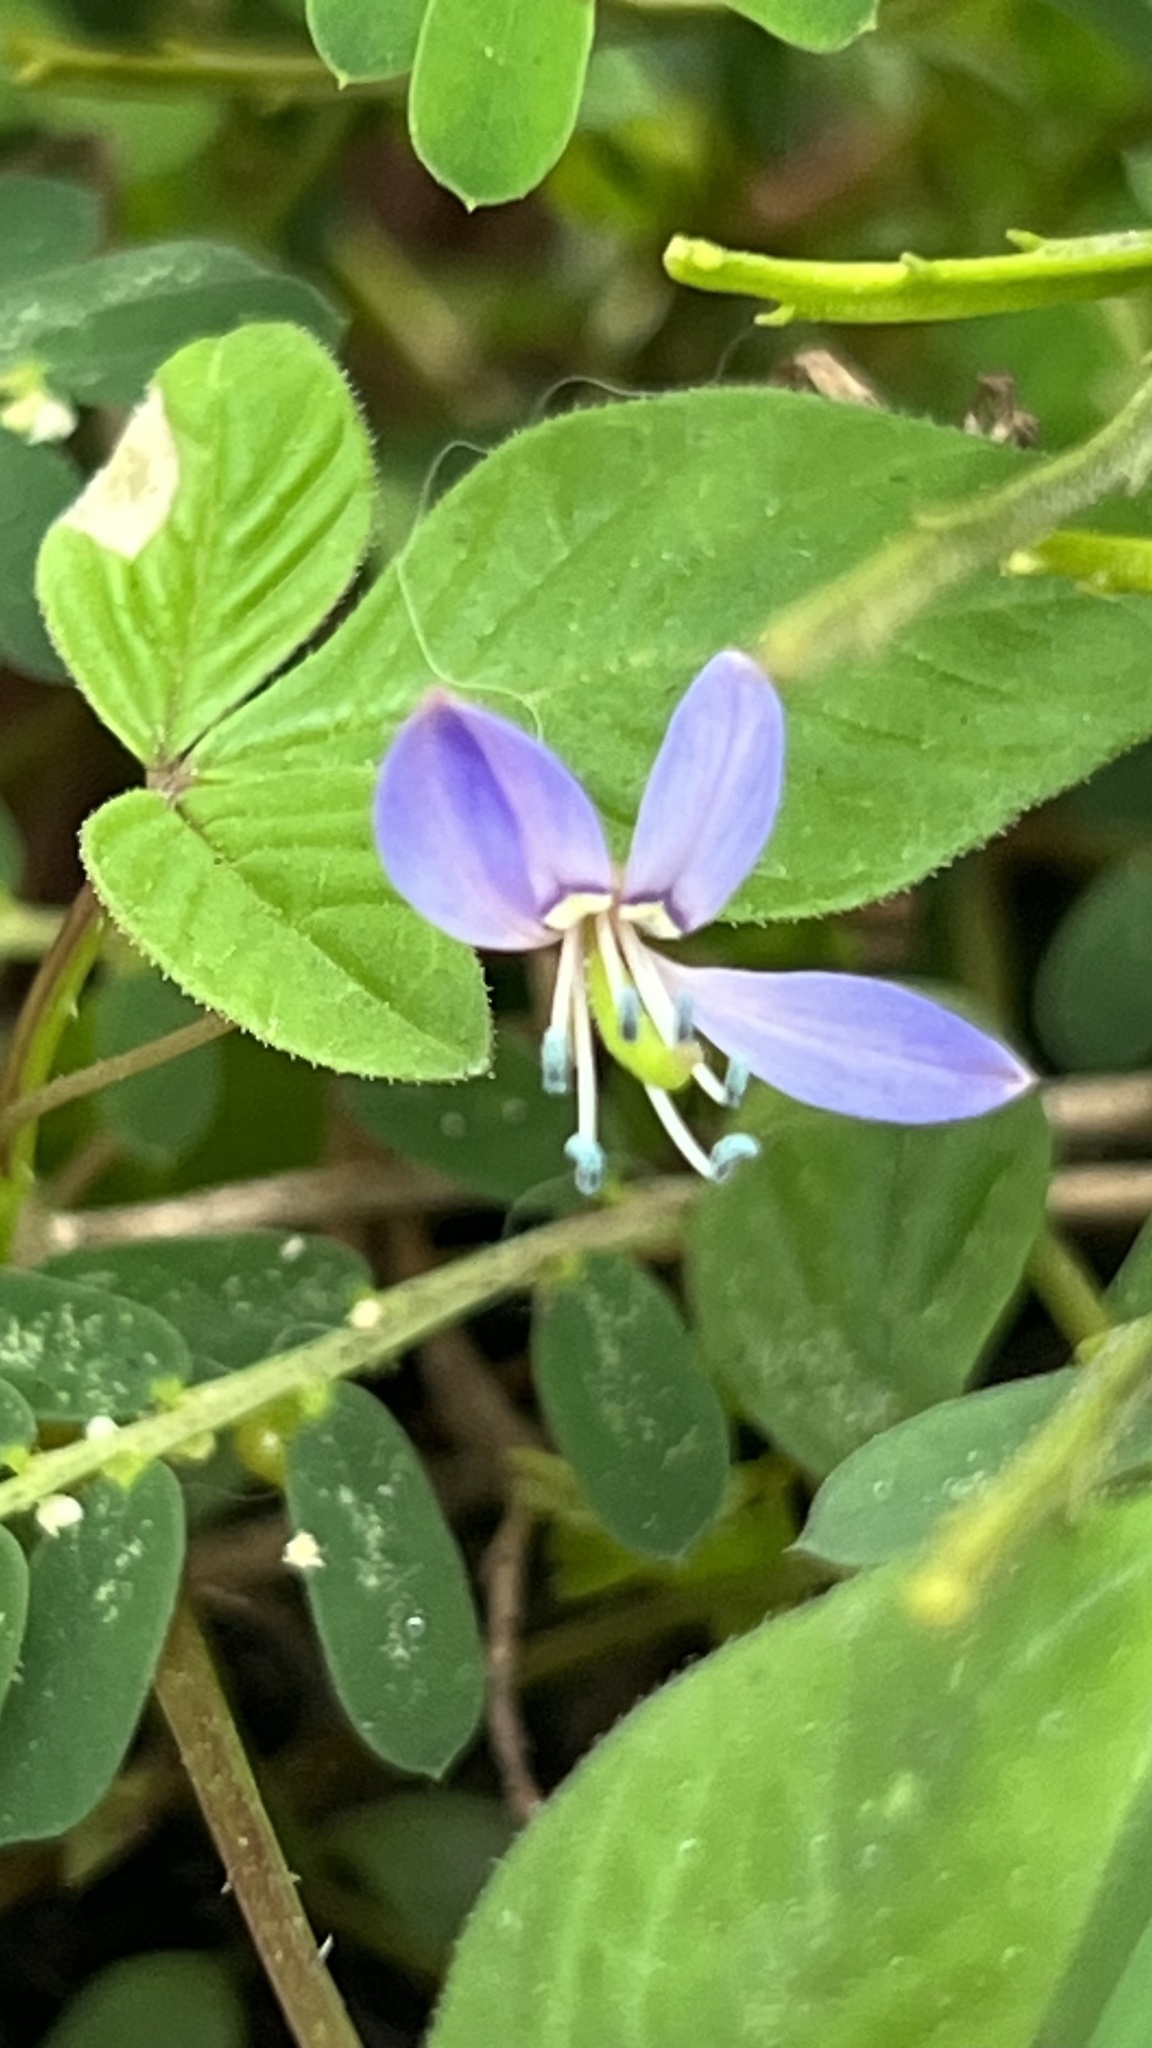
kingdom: Plantae
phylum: Tracheophyta
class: Magnoliopsida
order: Brassicales
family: Cleomaceae
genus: Sieruela
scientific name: Sieruela rutidosperma
